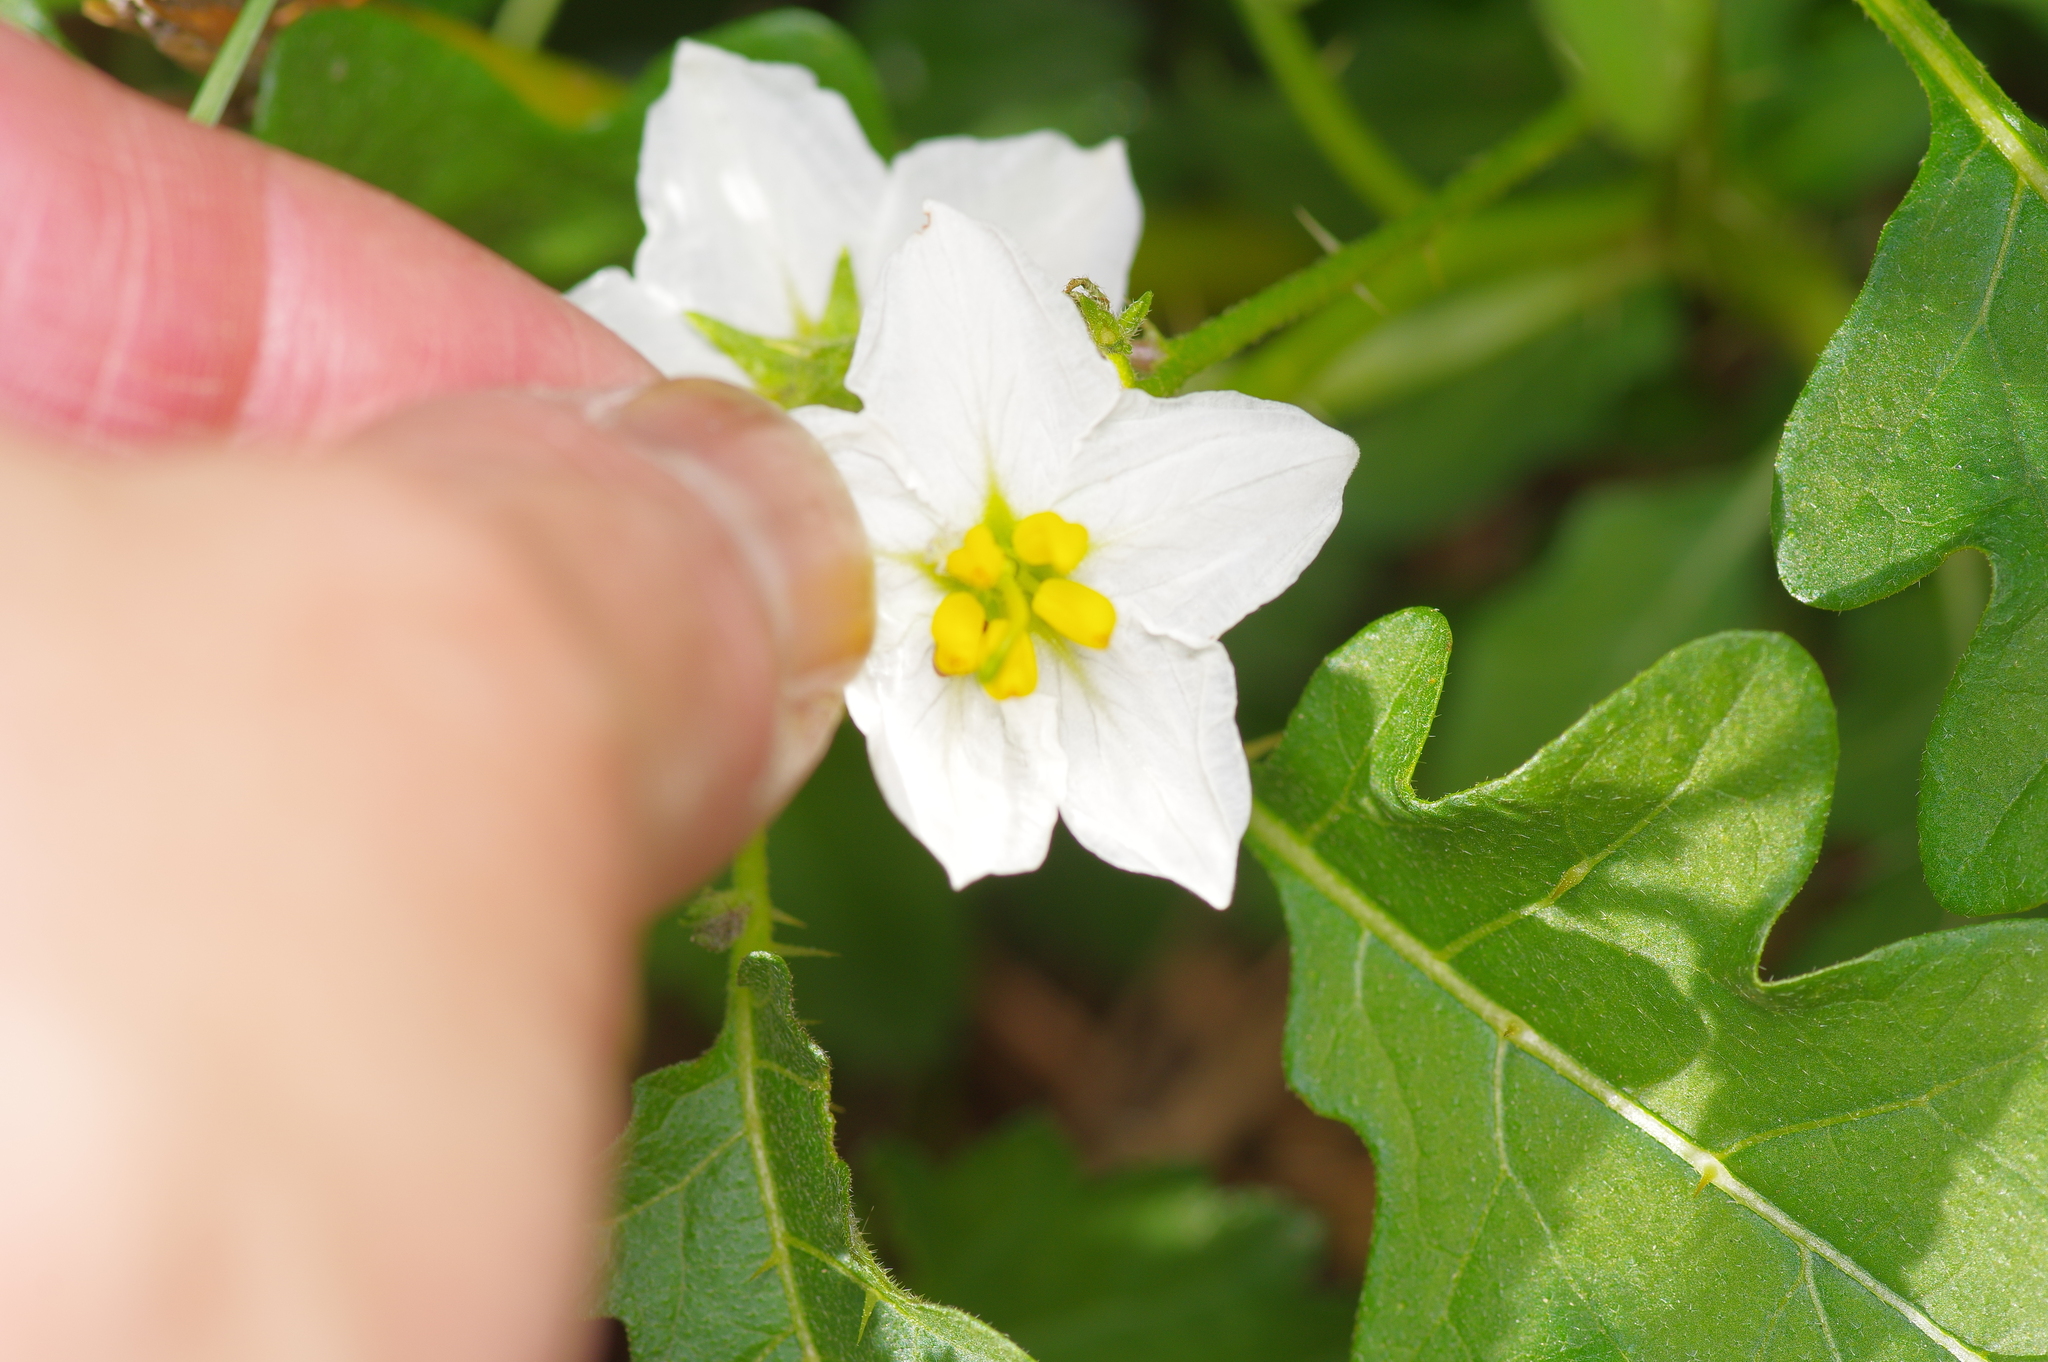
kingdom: Plantae
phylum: Tracheophyta
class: Magnoliopsida
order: Solanales
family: Solanaceae
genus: Solanum
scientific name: Solanum carolinense
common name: Horse-nettle
